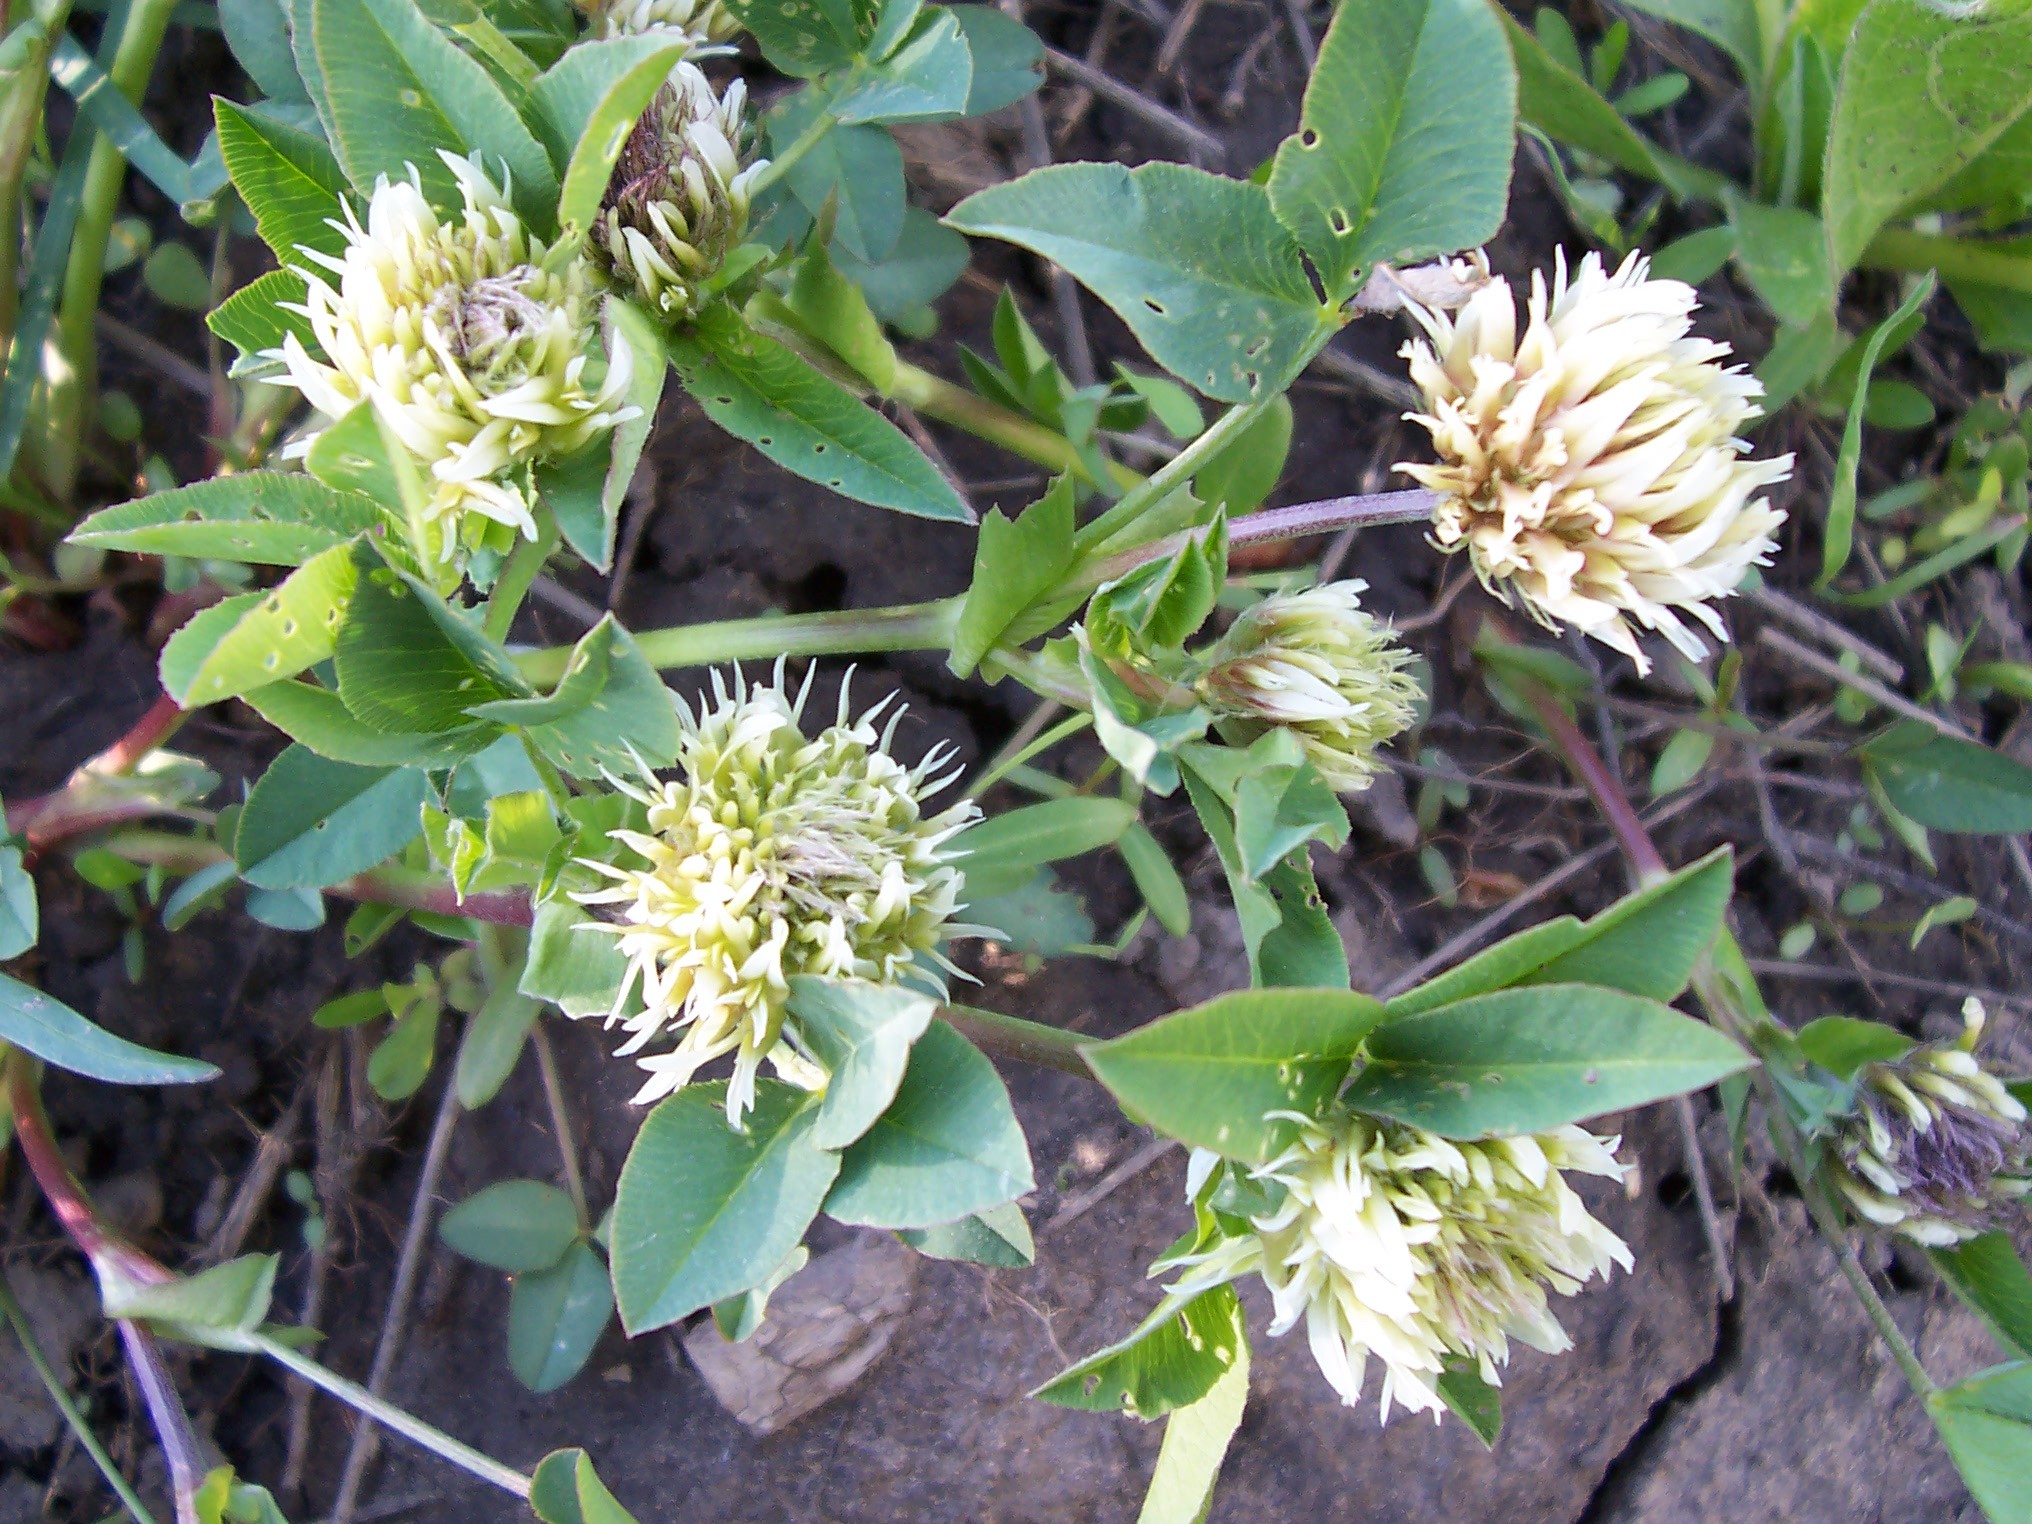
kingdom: Plantae
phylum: Tracheophyta
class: Magnoliopsida
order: Fabales
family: Fabaceae
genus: Trifolium
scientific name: Trifolium longipes
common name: Long-stalk clover
